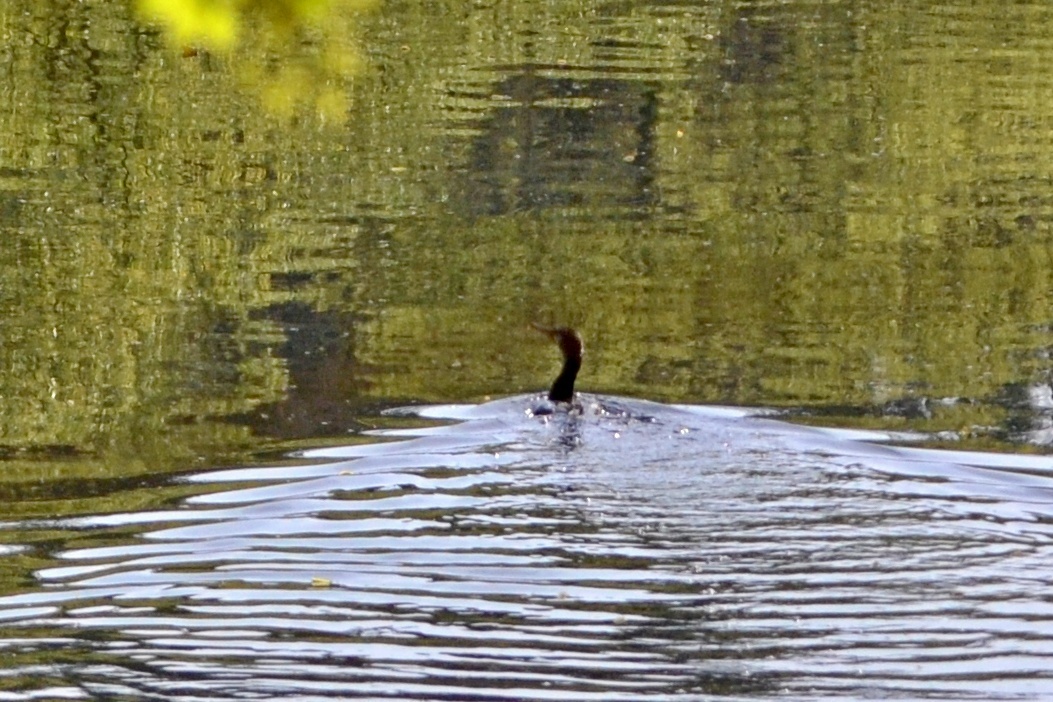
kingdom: Animalia
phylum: Chordata
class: Aves
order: Suliformes
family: Phalacrocoracidae
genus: Phalacrocorax
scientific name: Phalacrocorax carbo
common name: Great cormorant
